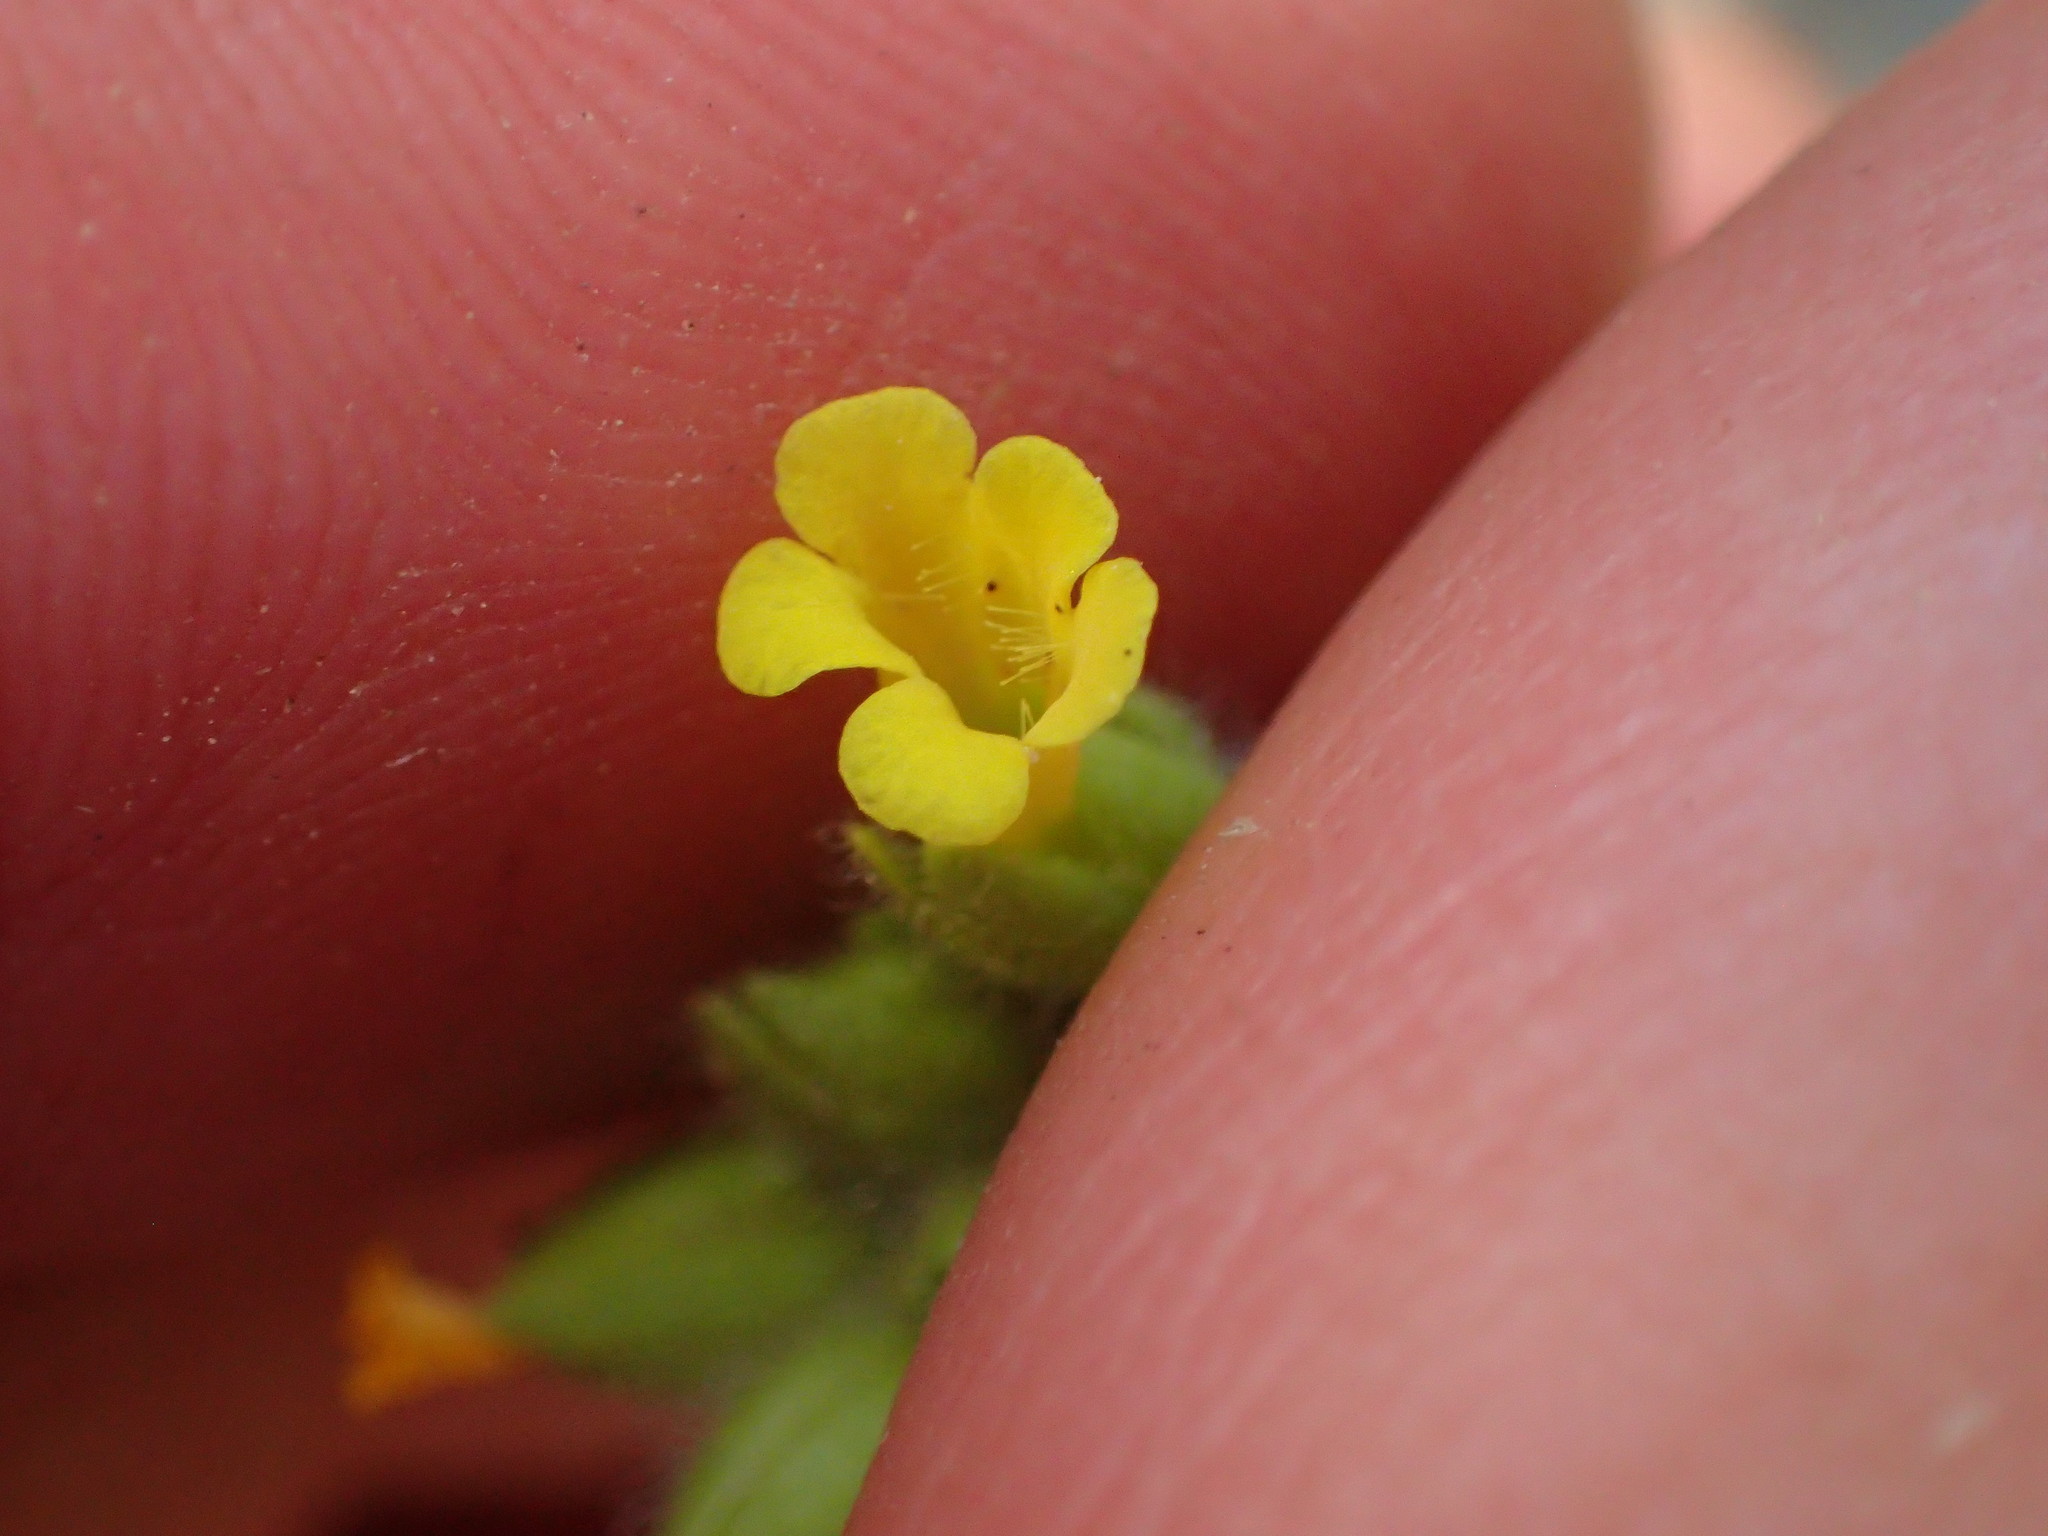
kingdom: Plantae
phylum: Tracheophyta
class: Magnoliopsida
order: Lamiales
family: Phrymaceae
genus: Mimetanthe
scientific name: Mimetanthe pilosa
